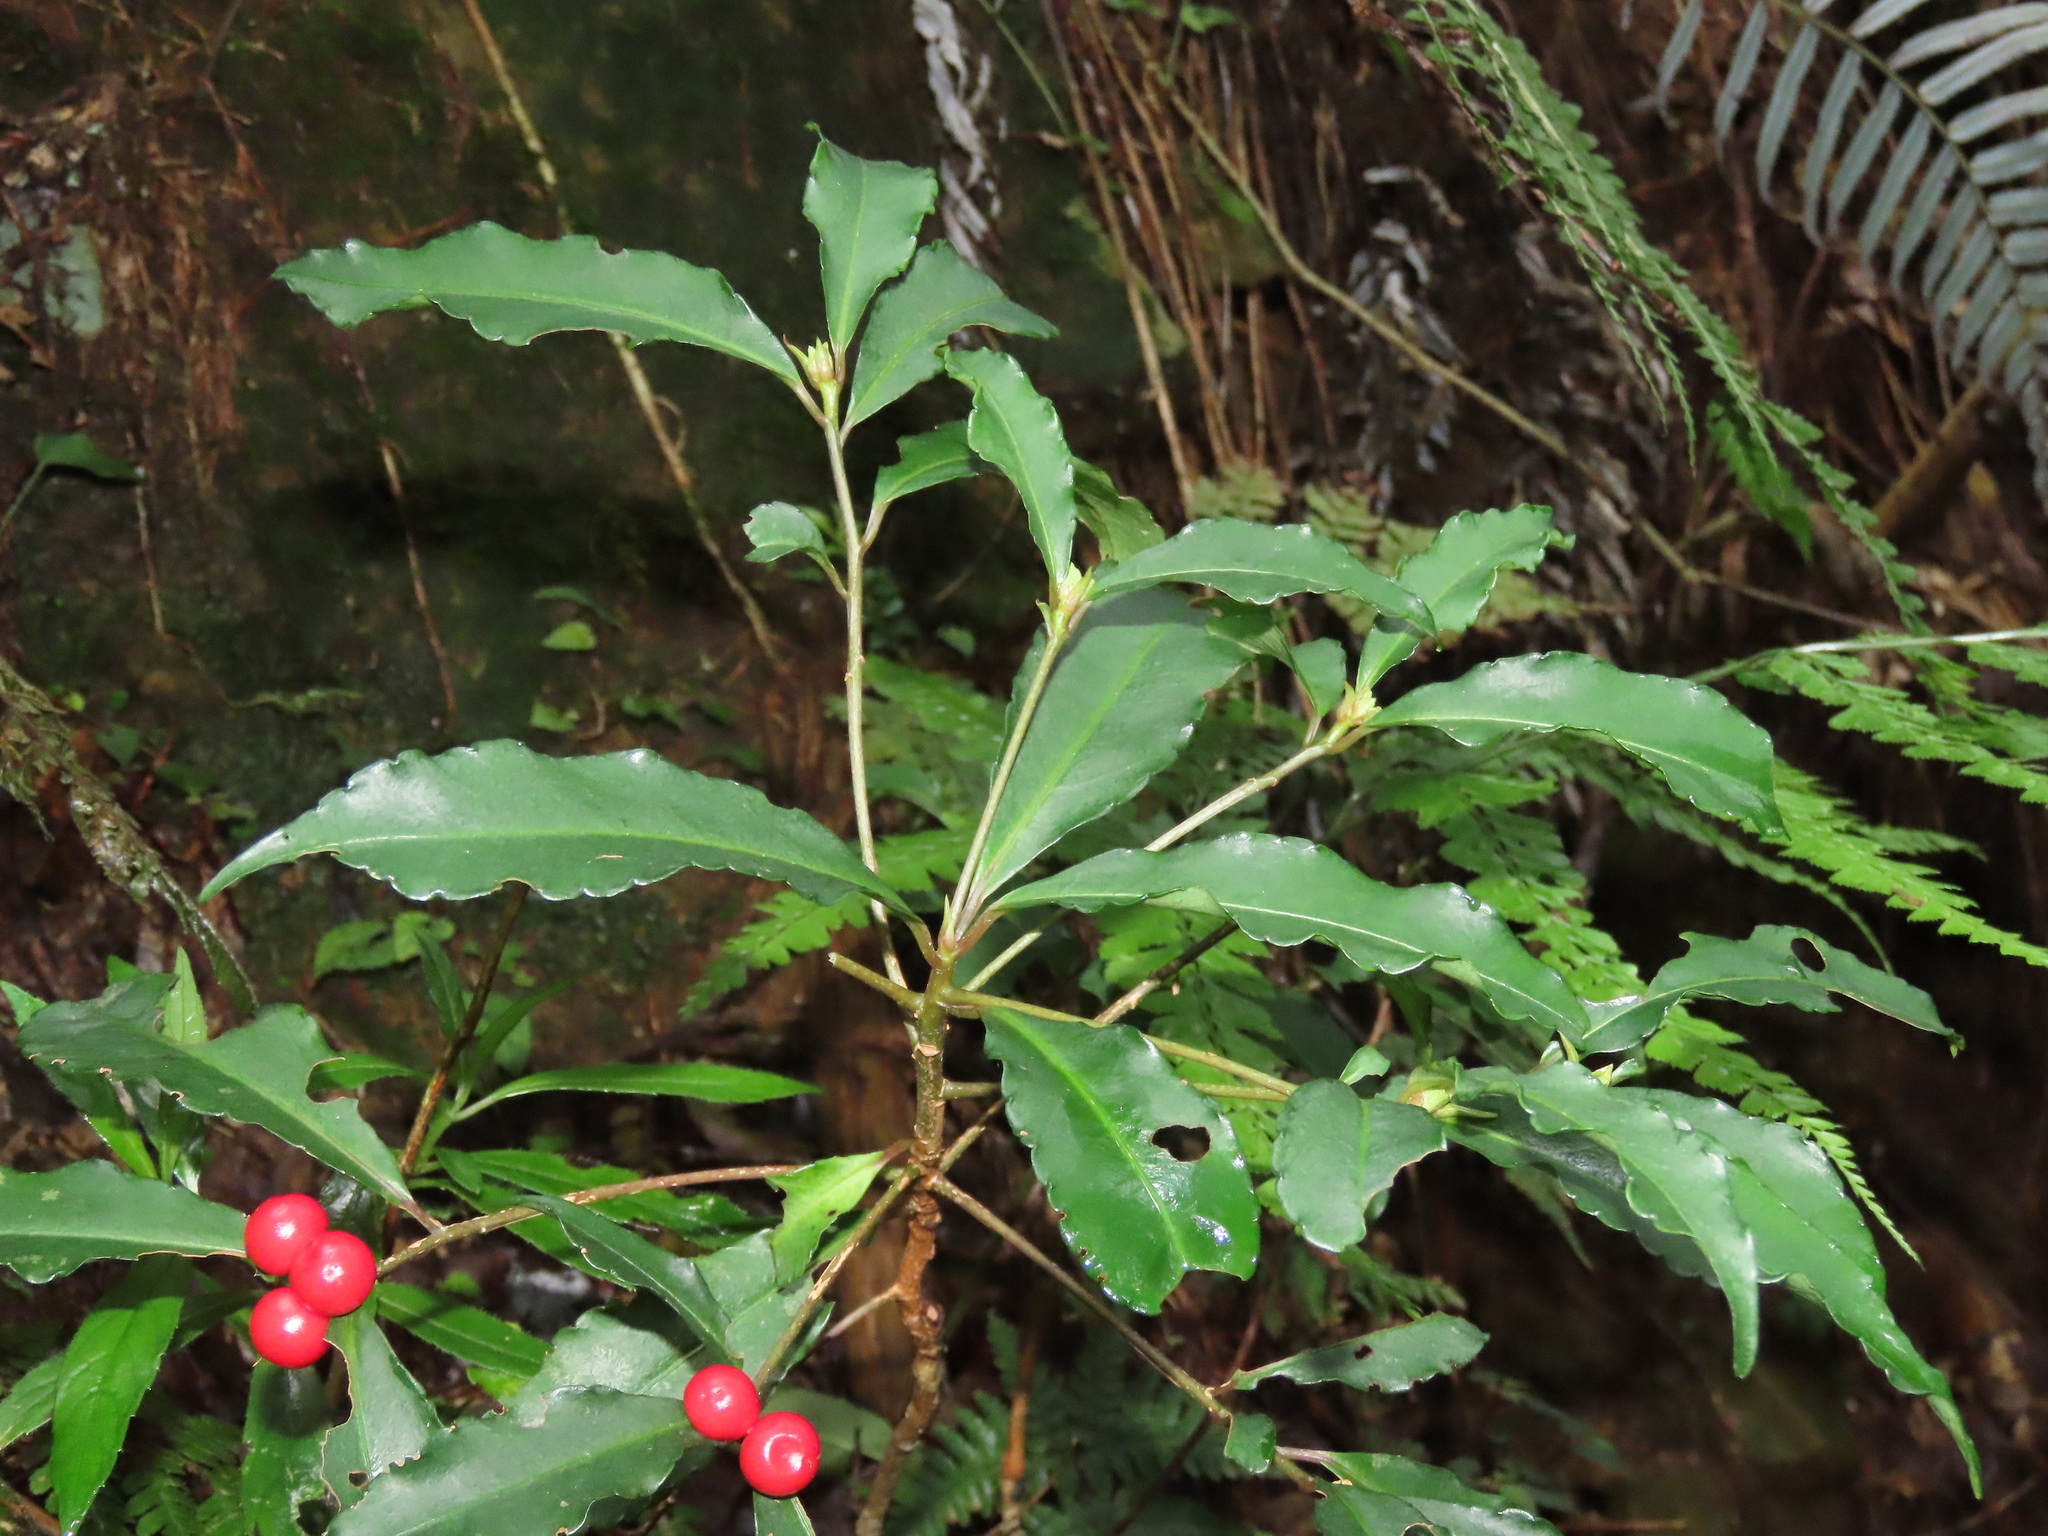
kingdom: Plantae
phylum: Tracheophyta
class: Magnoliopsida
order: Ericales
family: Primulaceae
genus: Ardisia
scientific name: Ardisia crenata
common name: Hen's eyes
